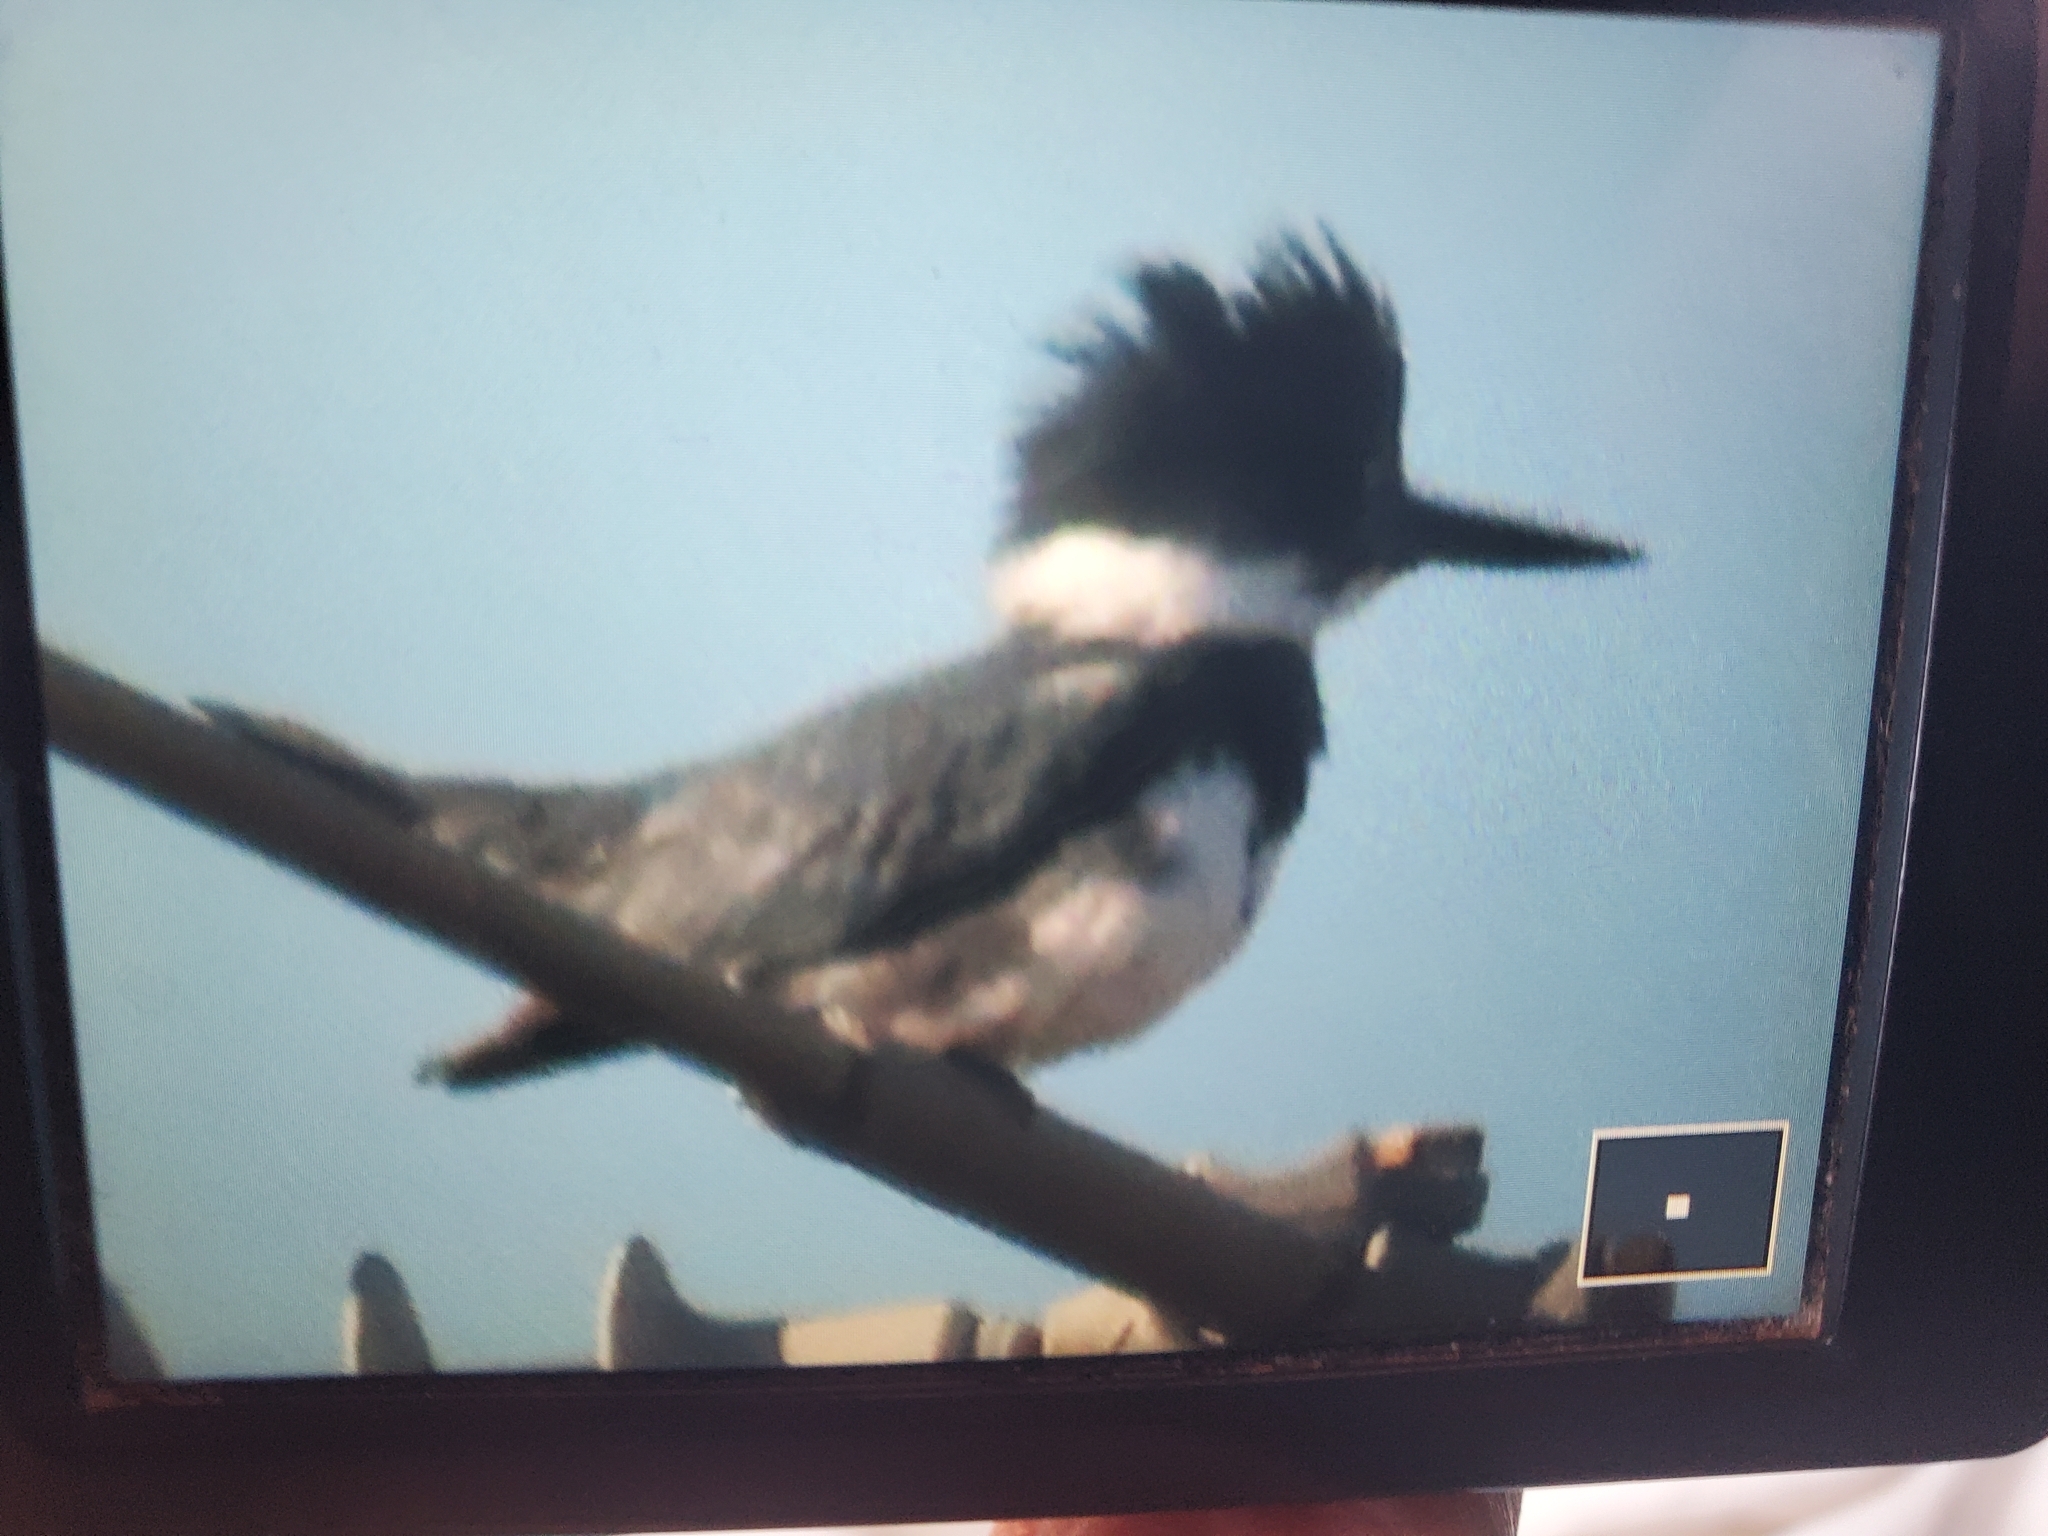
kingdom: Animalia
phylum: Chordata
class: Aves
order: Coraciiformes
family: Alcedinidae
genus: Megaceryle
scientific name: Megaceryle alcyon
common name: Belted kingfisher
